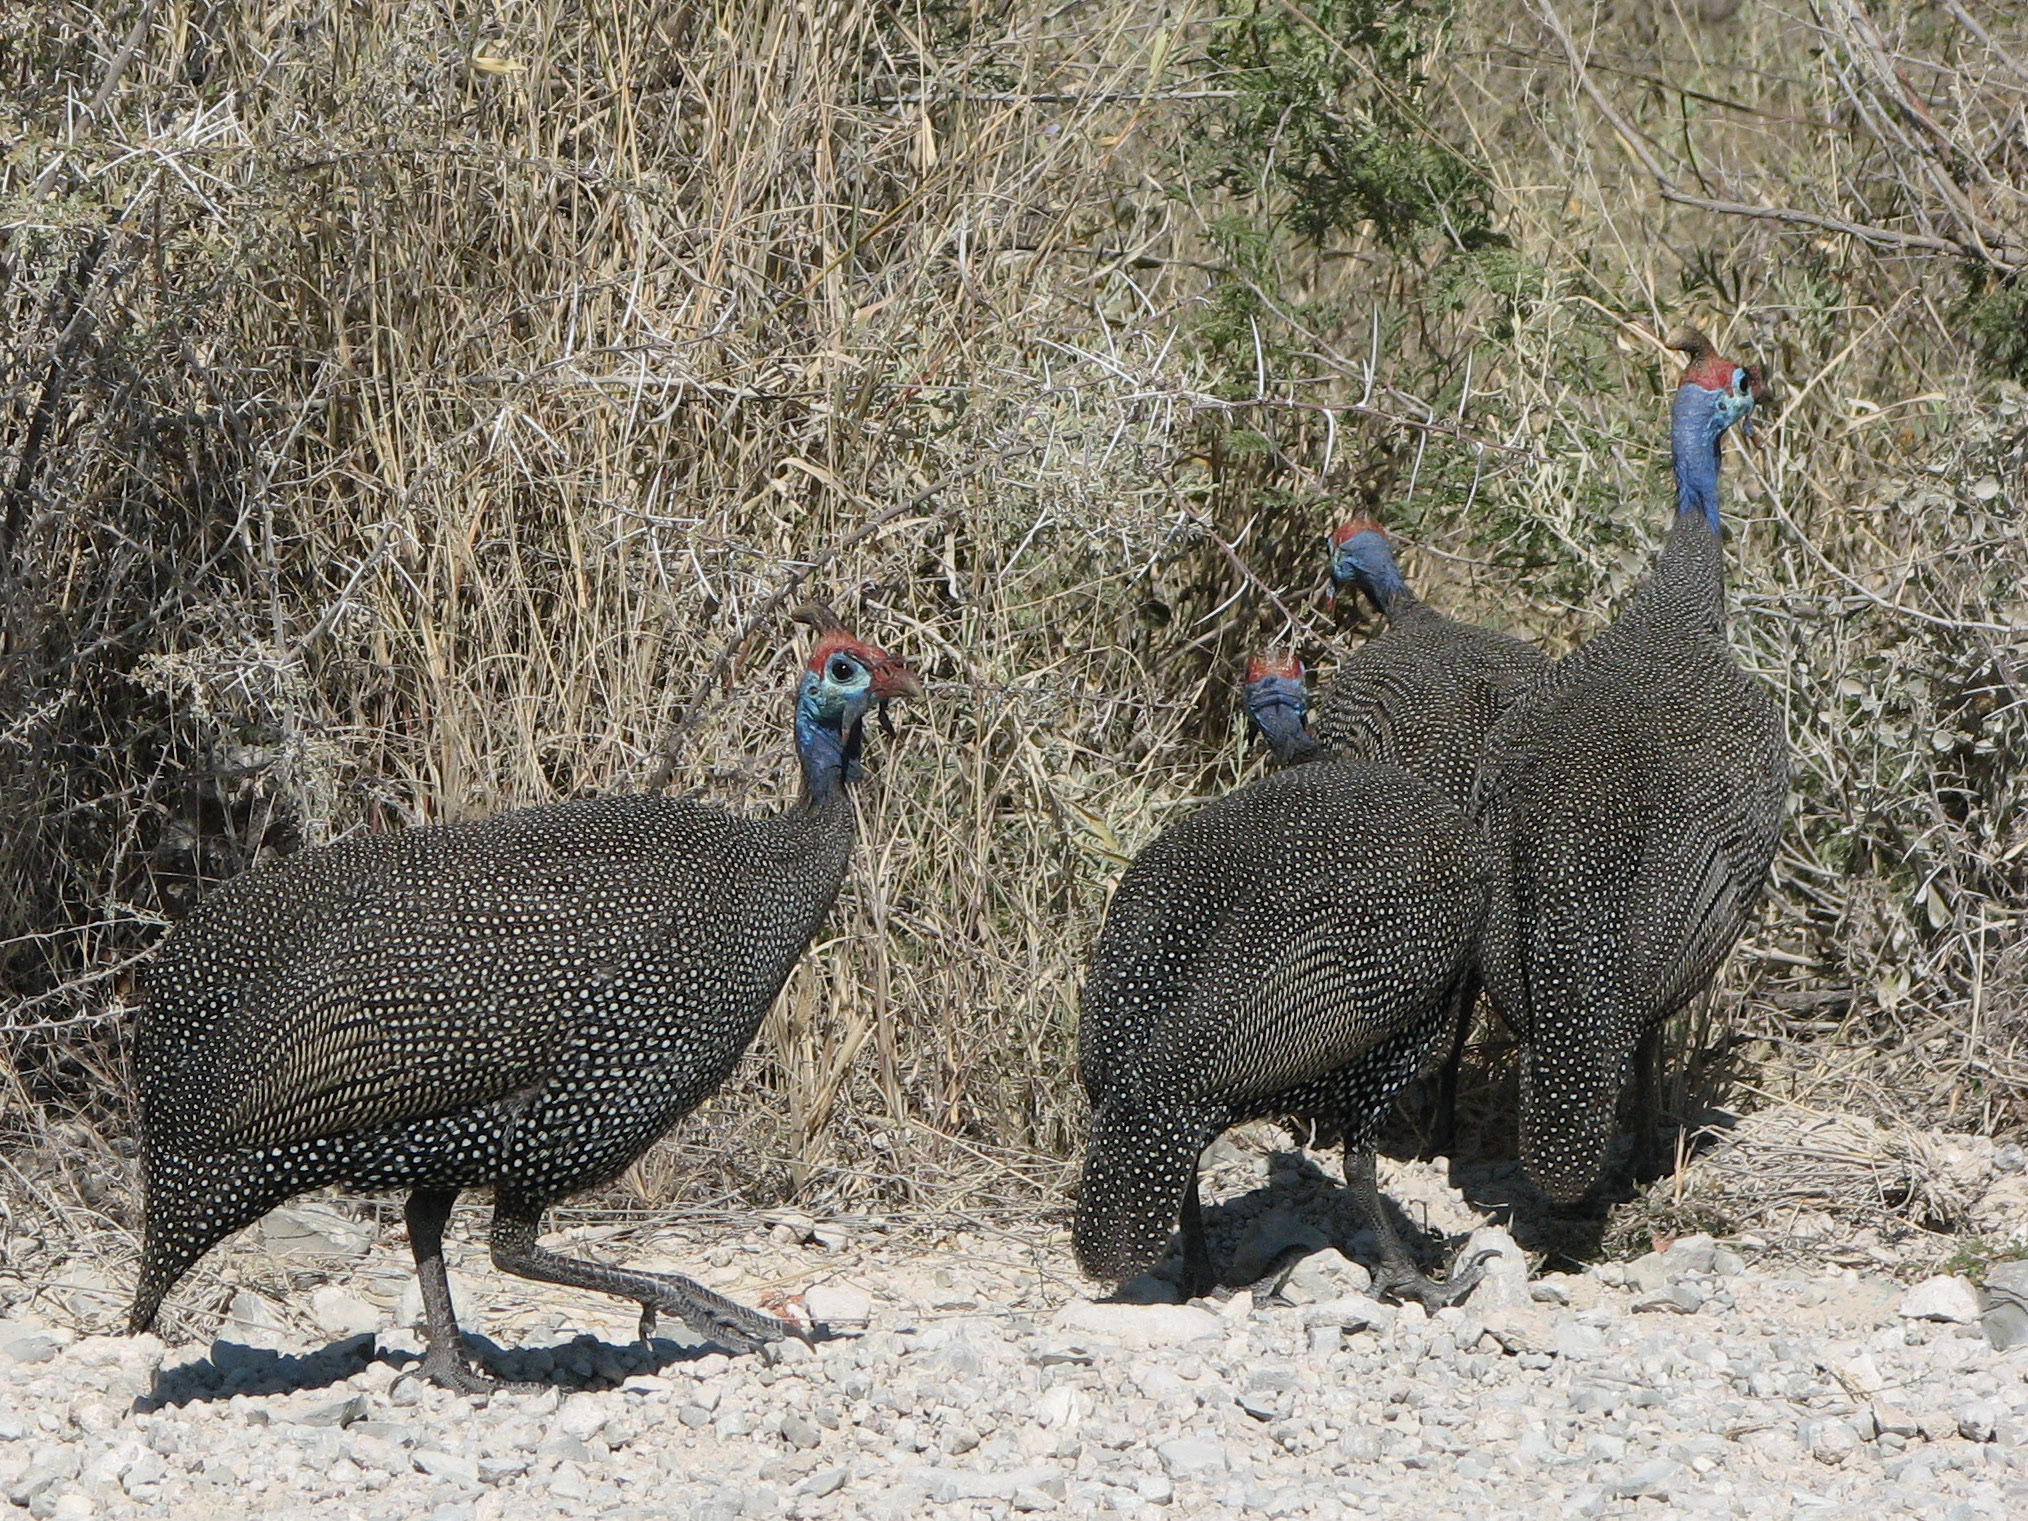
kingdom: Animalia
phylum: Chordata
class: Aves
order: Galliformes
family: Numididae
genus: Numida
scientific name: Numida meleagris
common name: Helmeted guineafowl
